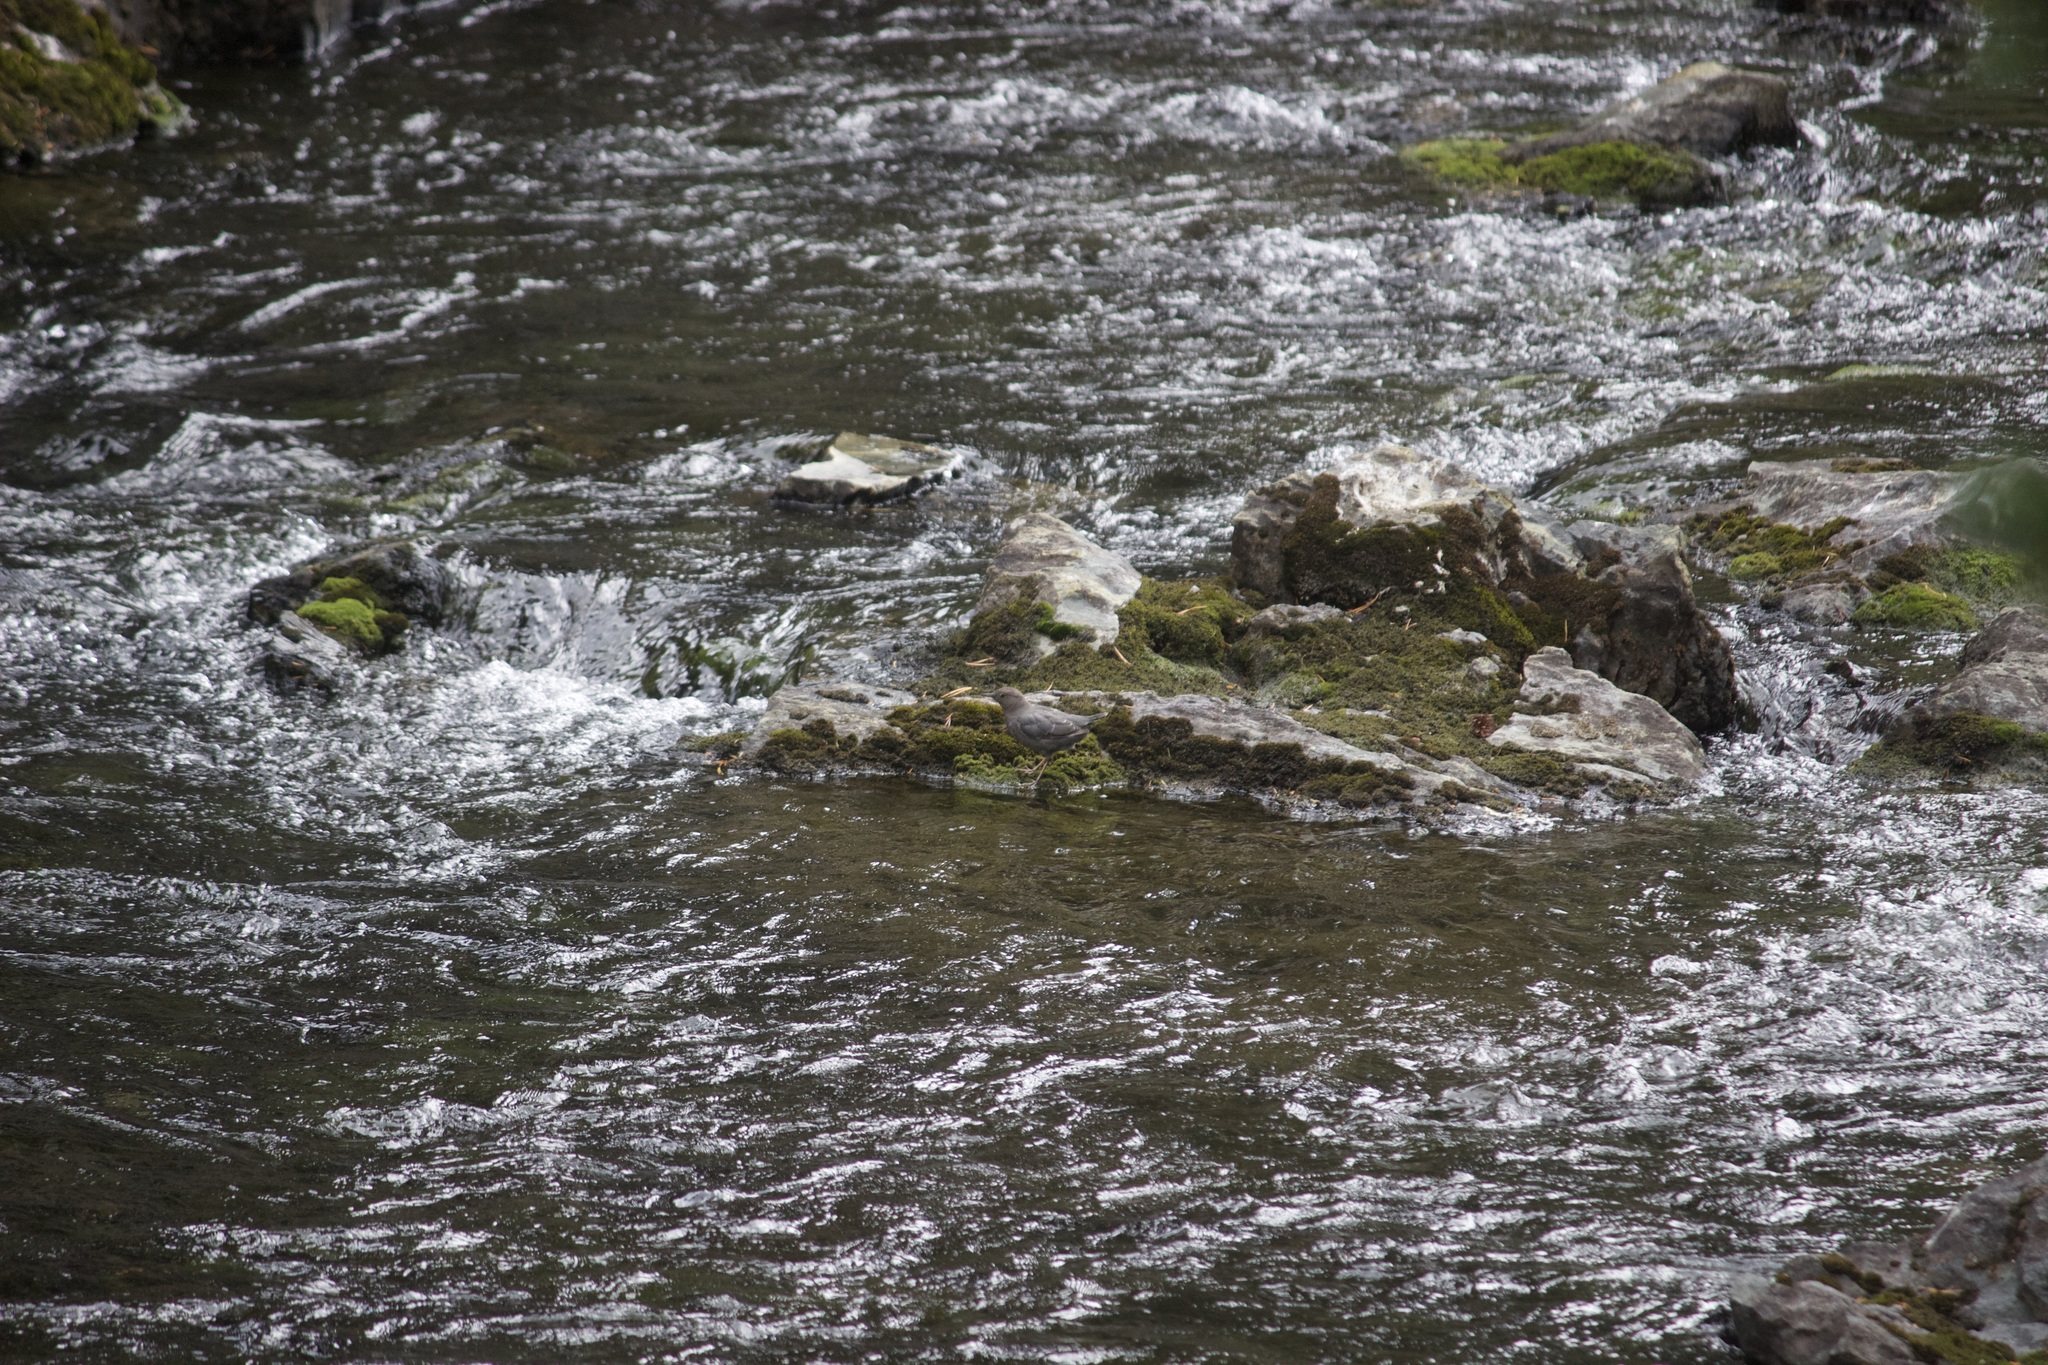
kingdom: Animalia
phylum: Chordata
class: Aves
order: Passeriformes
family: Cinclidae
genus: Cinclus
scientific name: Cinclus mexicanus
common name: American dipper
